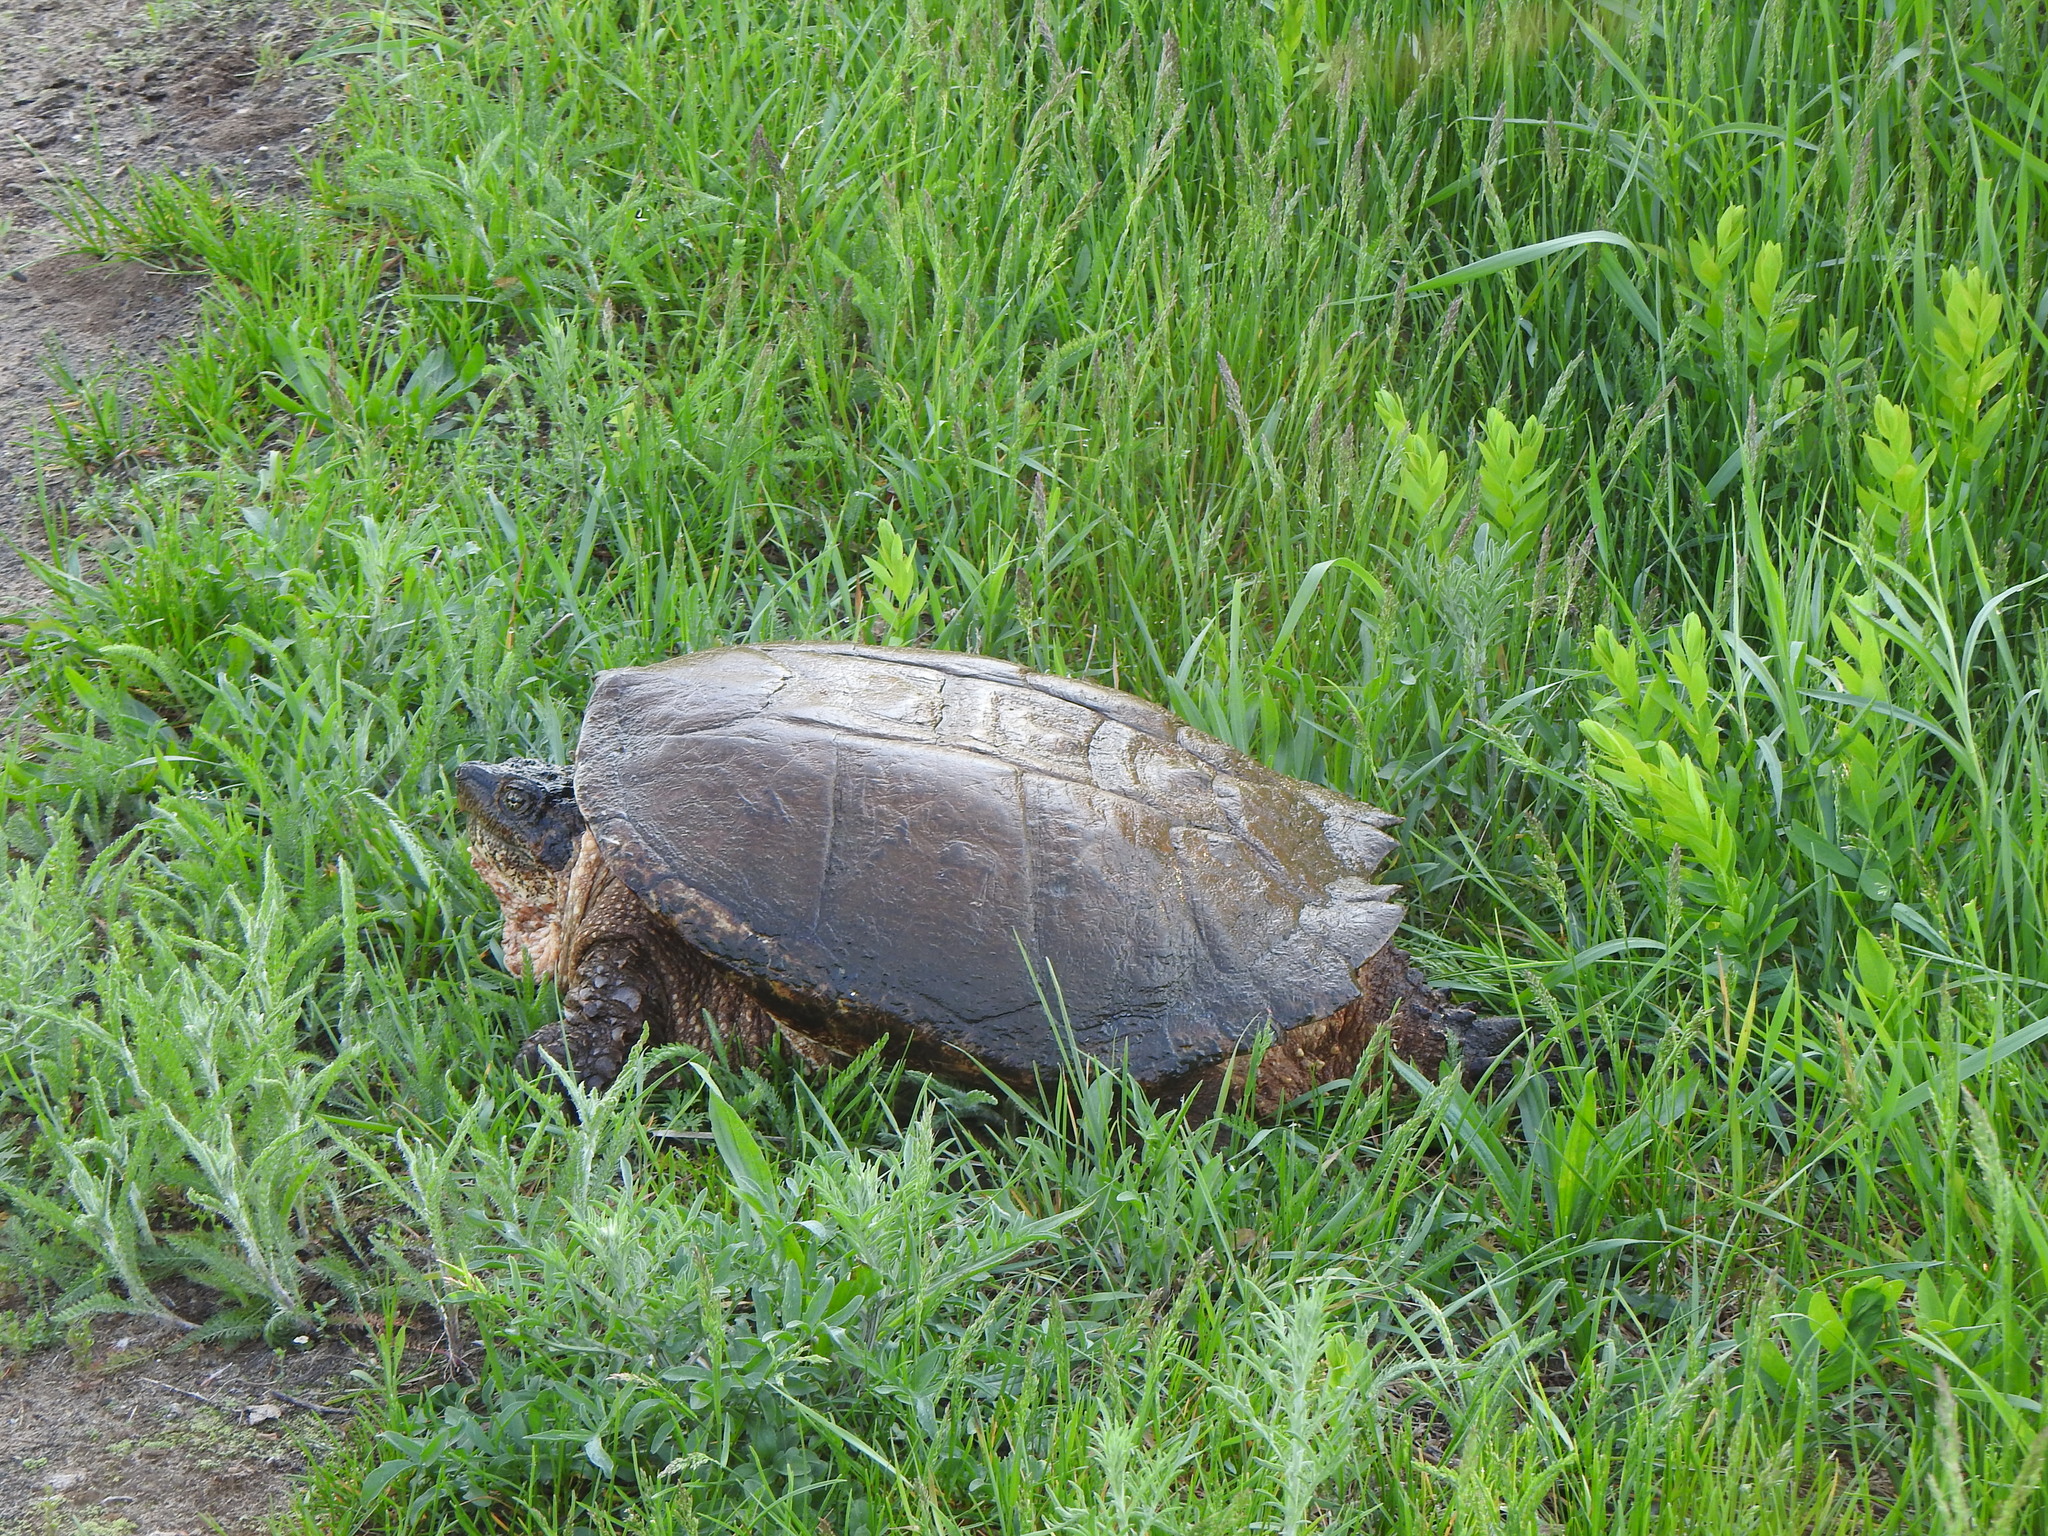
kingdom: Animalia
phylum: Chordata
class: Testudines
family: Chelydridae
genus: Chelydra
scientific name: Chelydra serpentina
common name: Common snapping turtle
